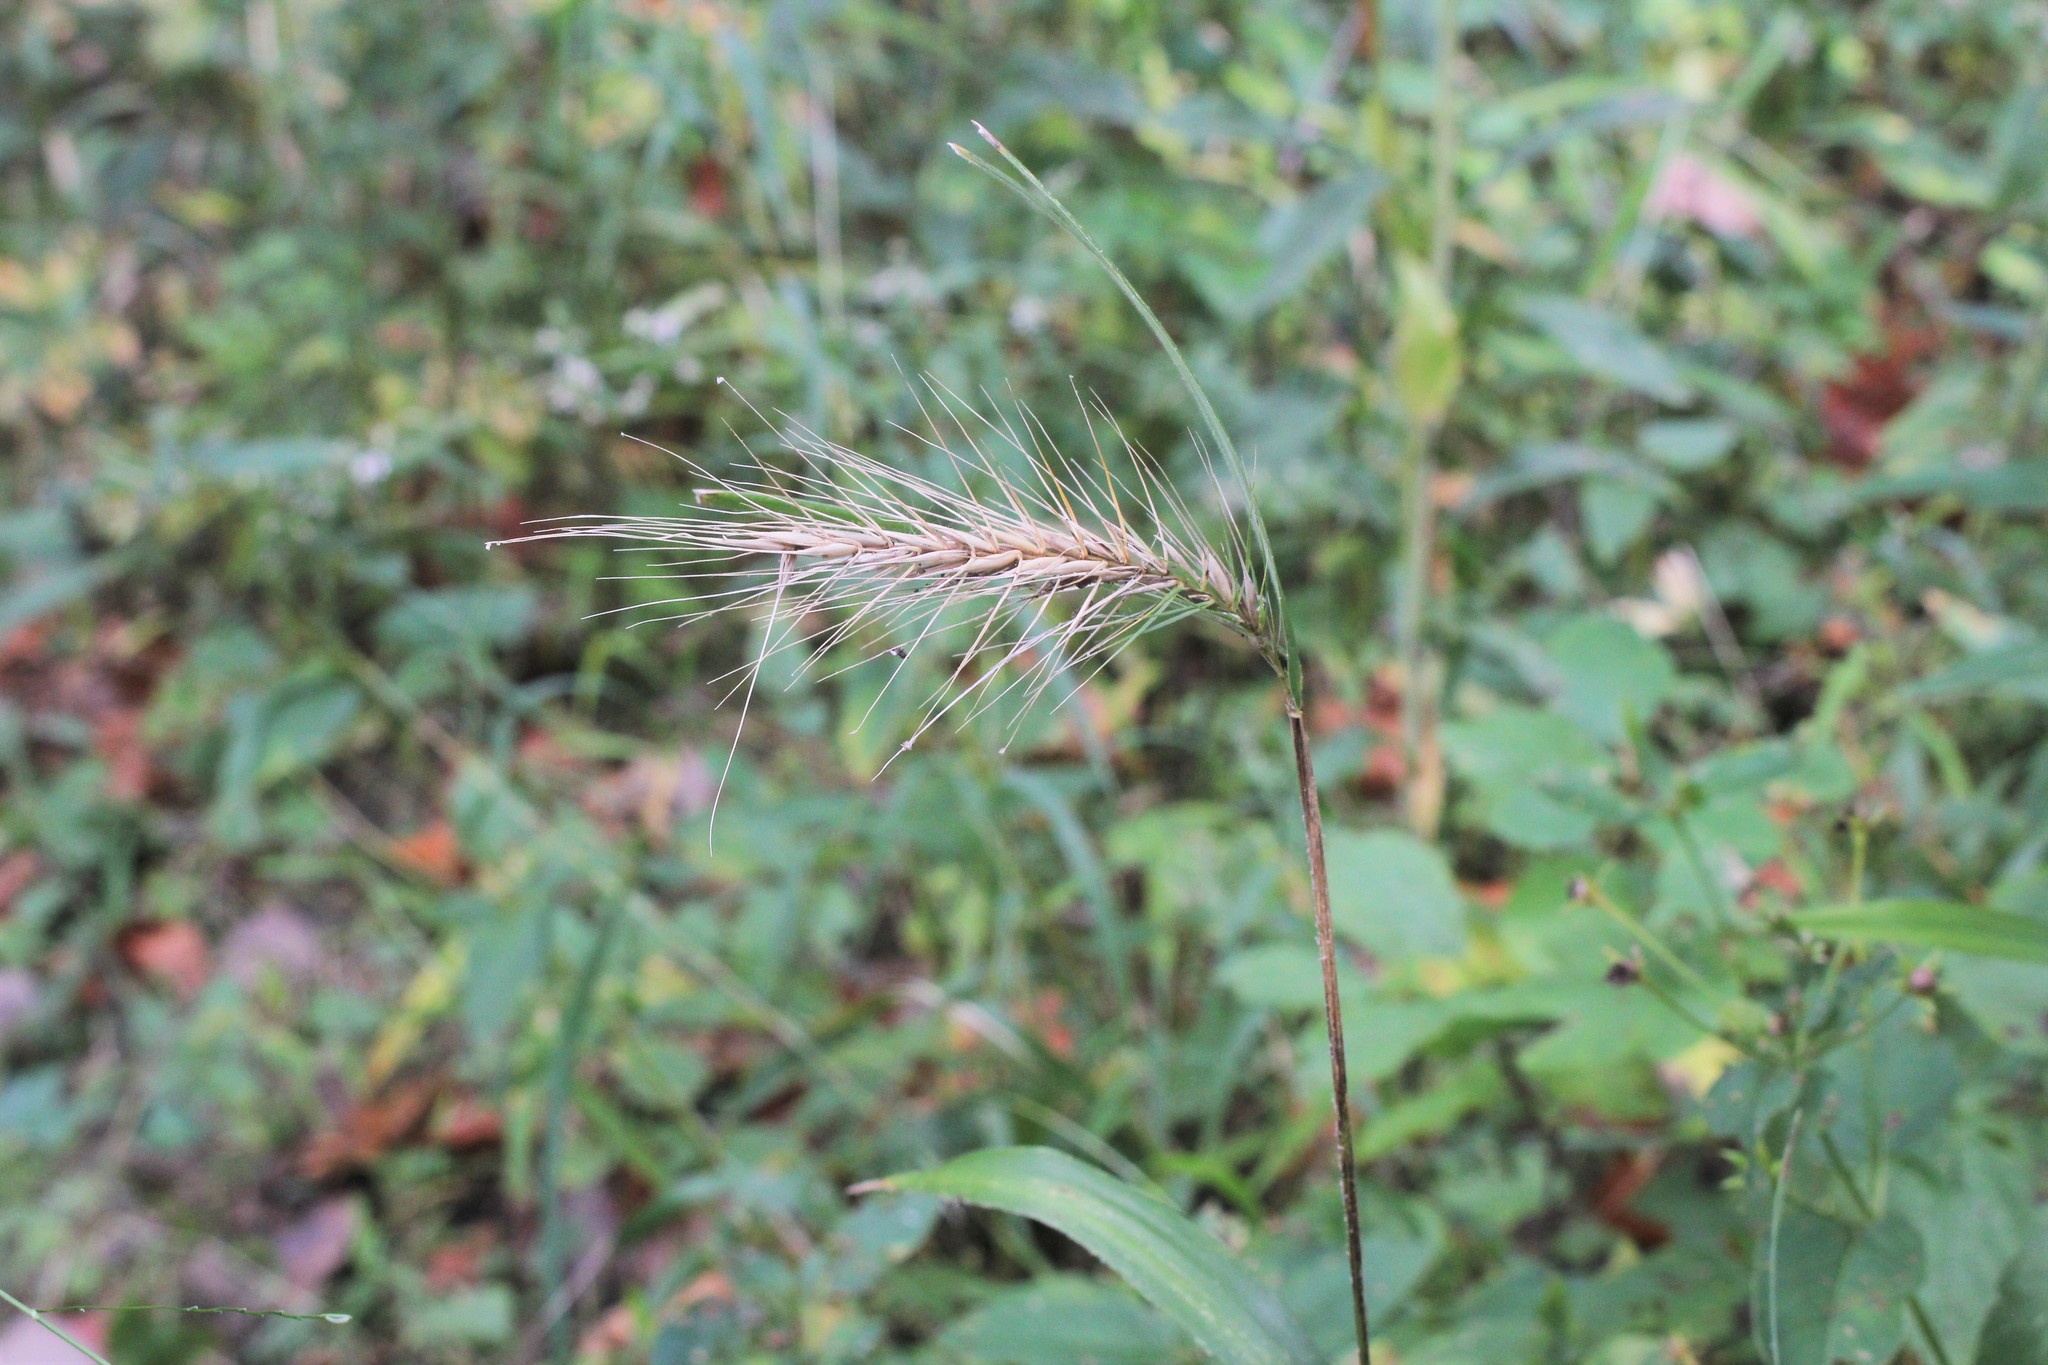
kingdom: Plantae
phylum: Tracheophyta
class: Liliopsida
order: Poales
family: Poaceae
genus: Elymus
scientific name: Elymus villosus
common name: Downy wild rye
